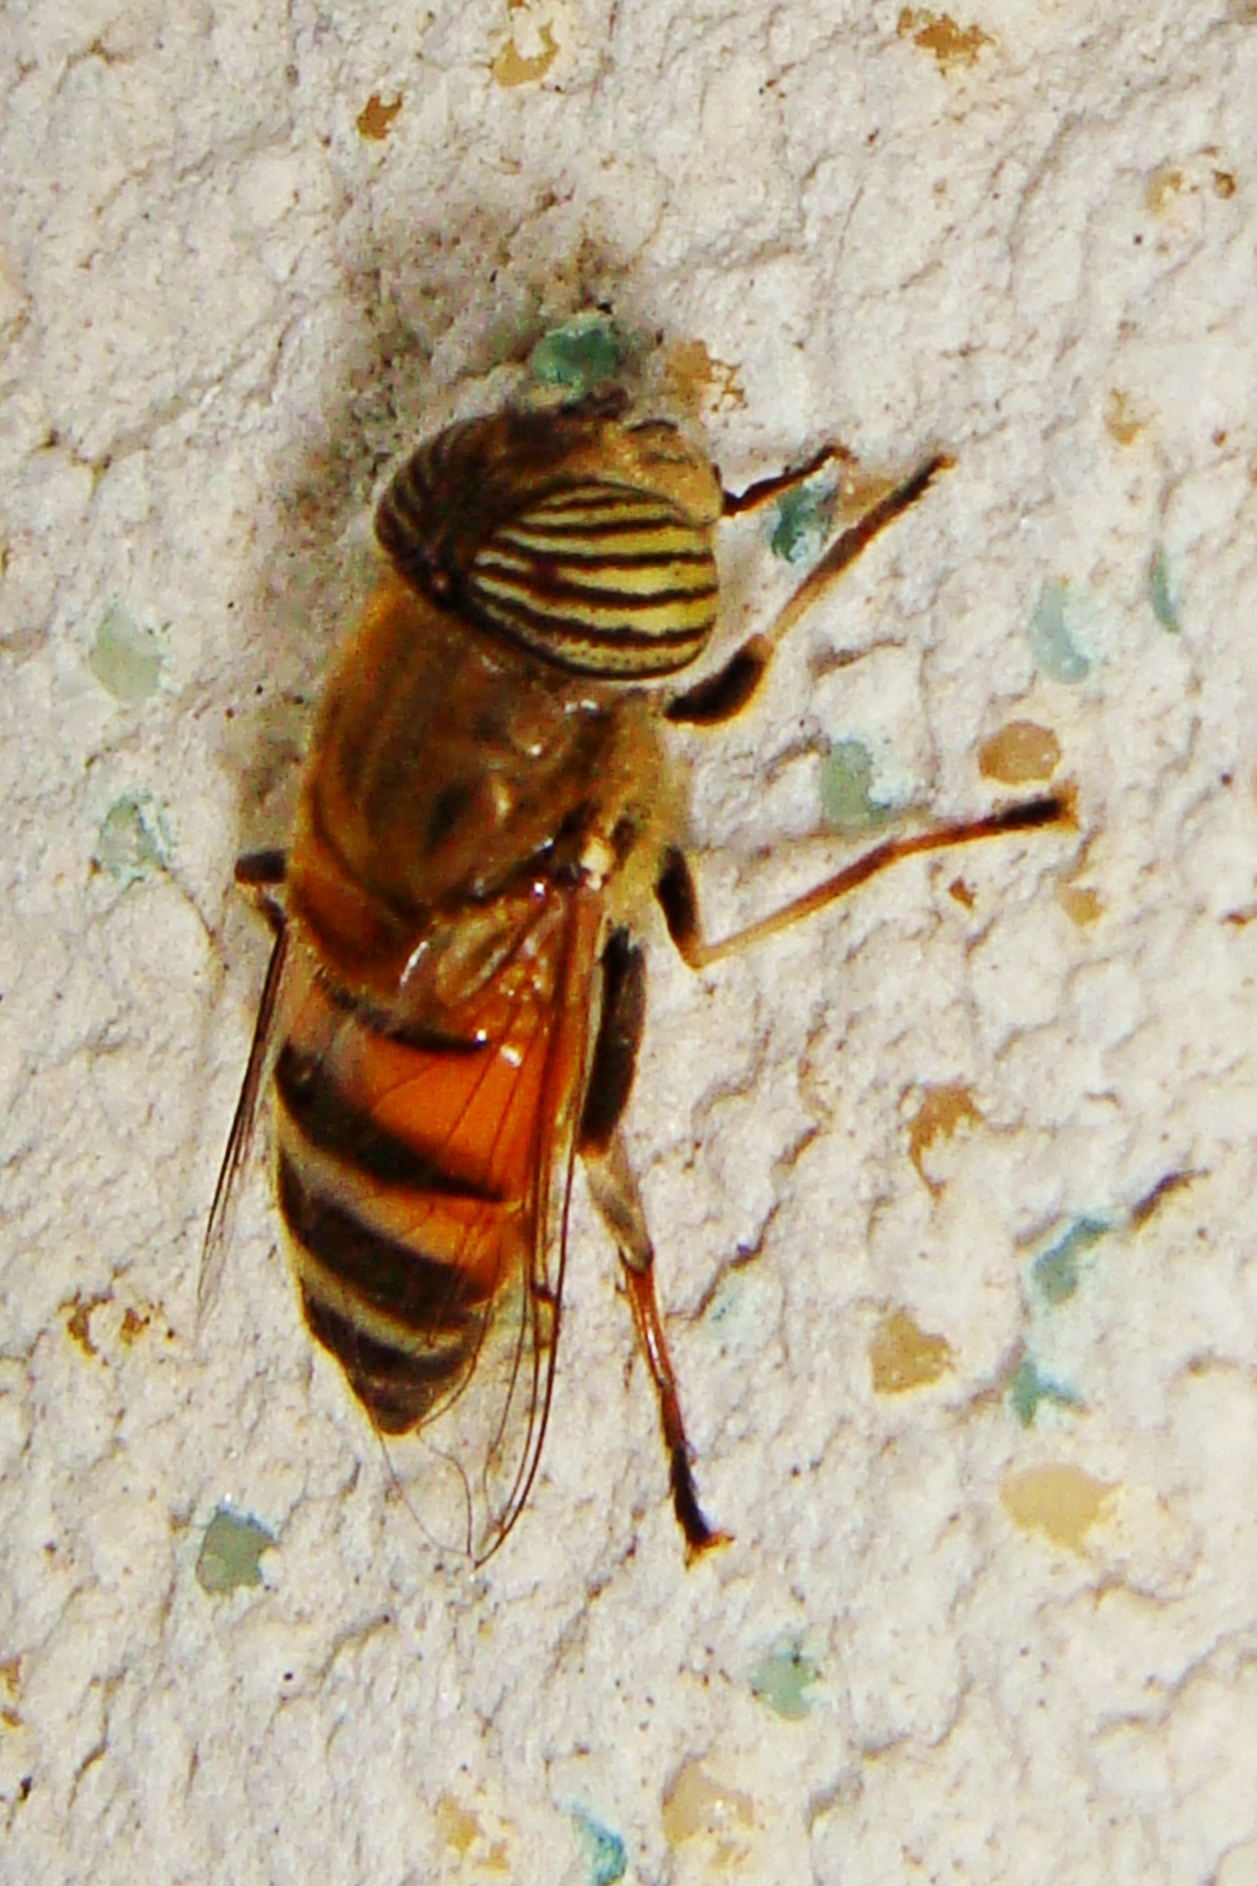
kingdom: Animalia
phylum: Arthropoda
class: Insecta
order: Diptera
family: Syrphidae
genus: Eristalinus
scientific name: Eristalinus taeniops
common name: Syrphid fly
